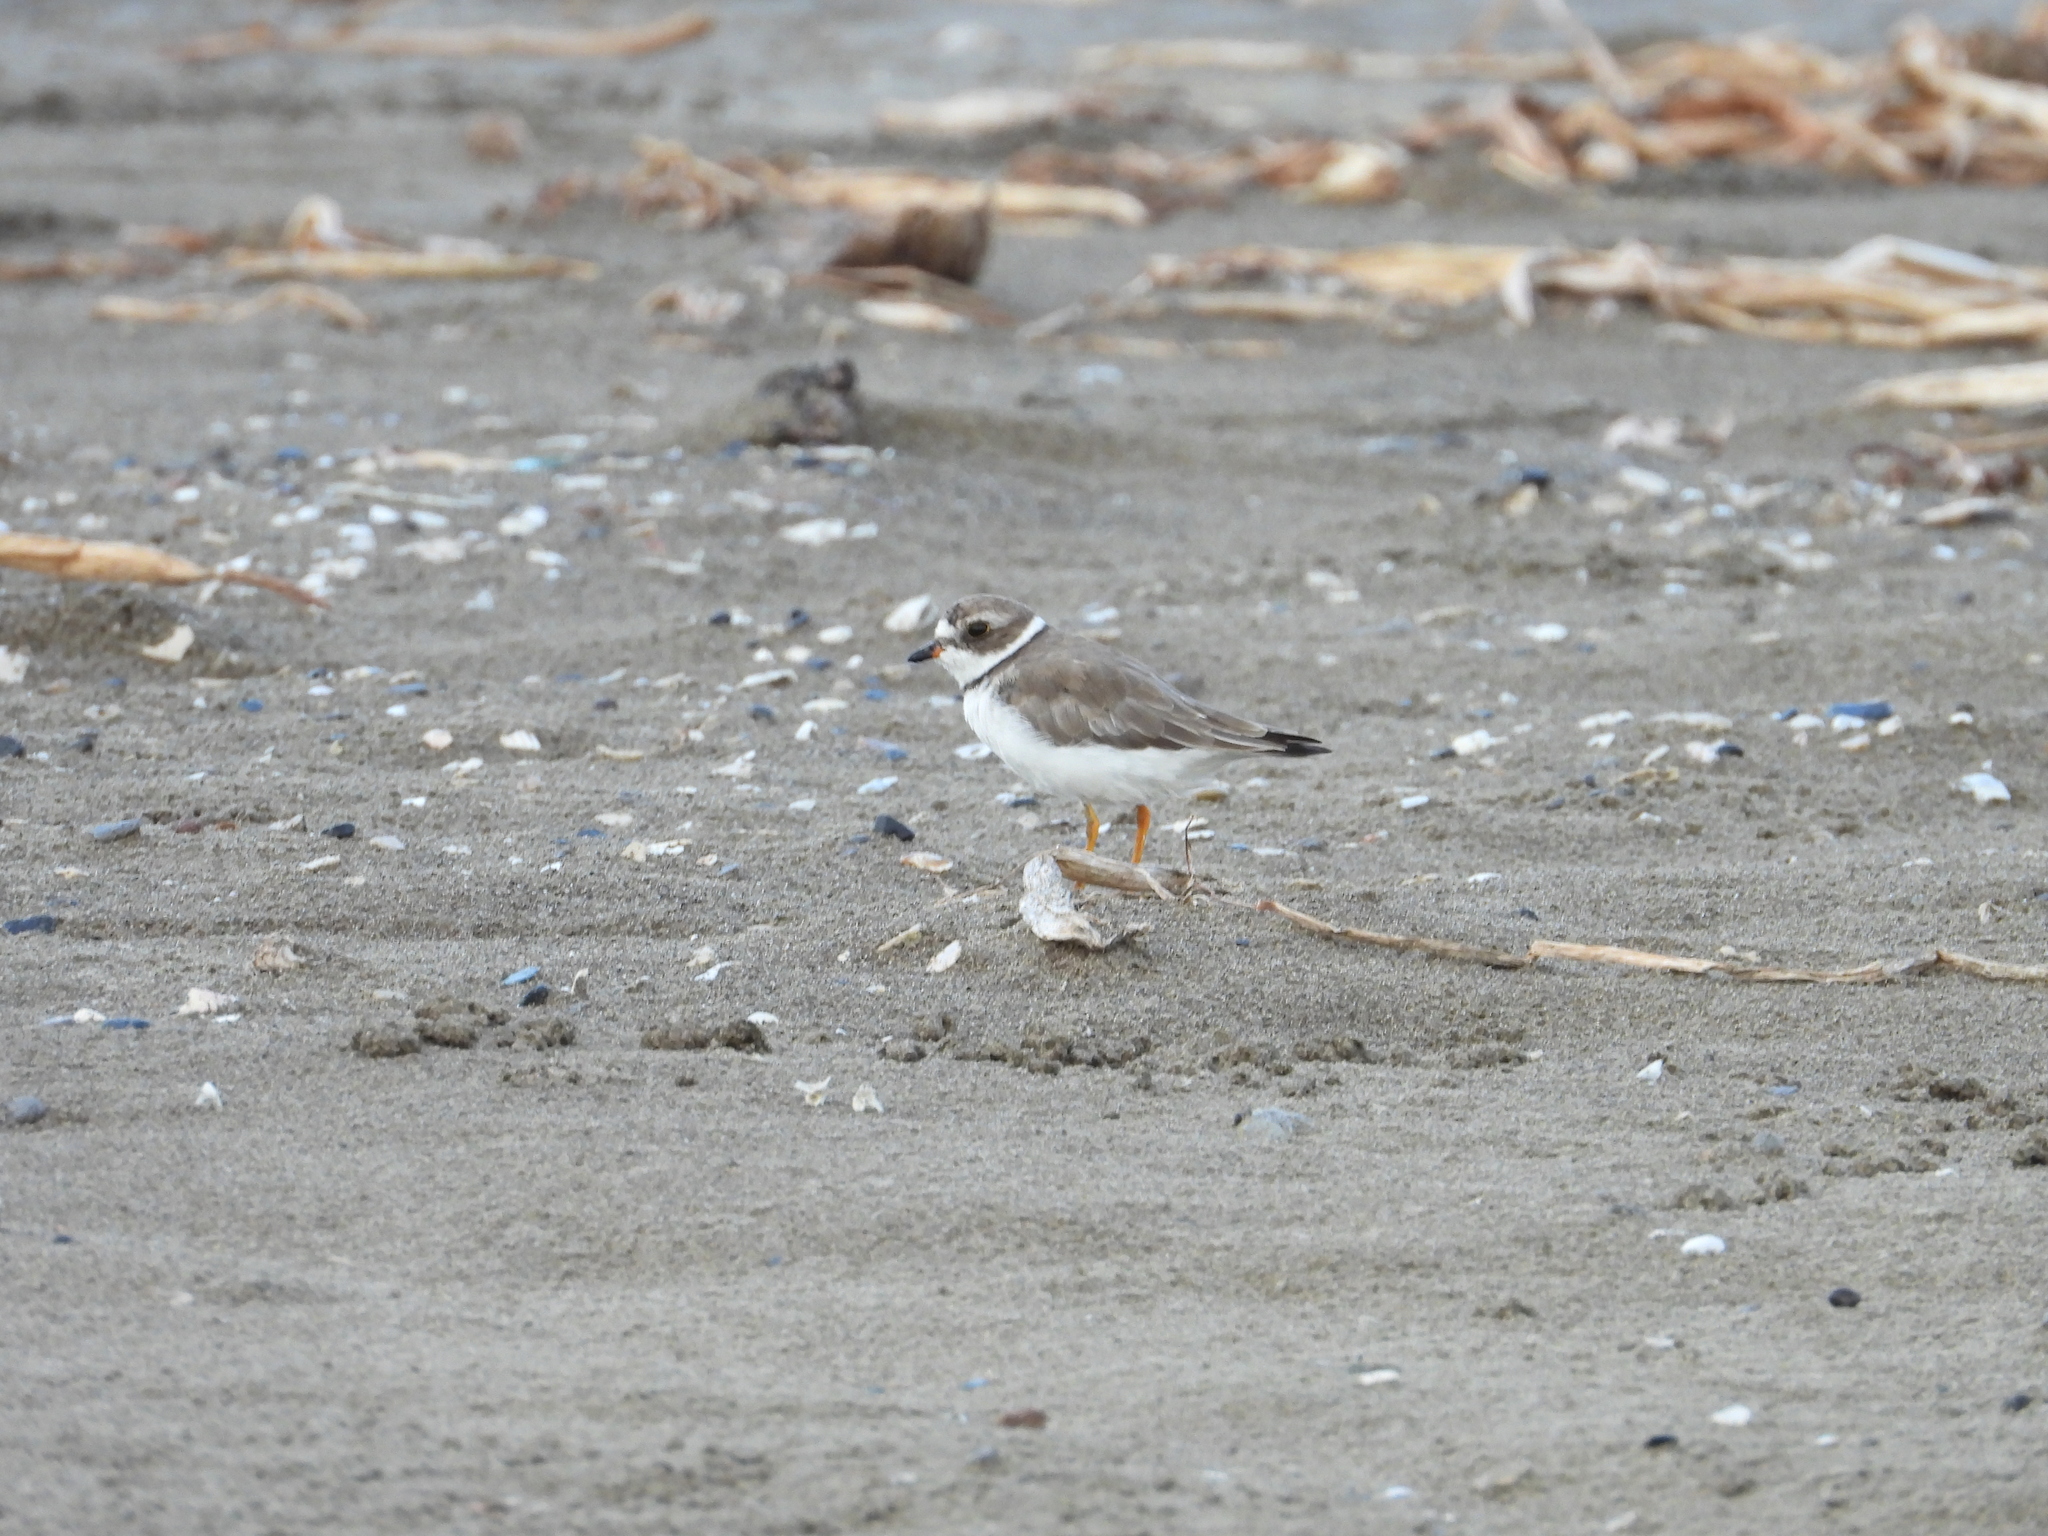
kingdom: Animalia
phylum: Chordata
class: Aves
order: Charadriiformes
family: Charadriidae
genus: Charadrius
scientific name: Charadrius semipalmatus
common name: Semipalmated plover
